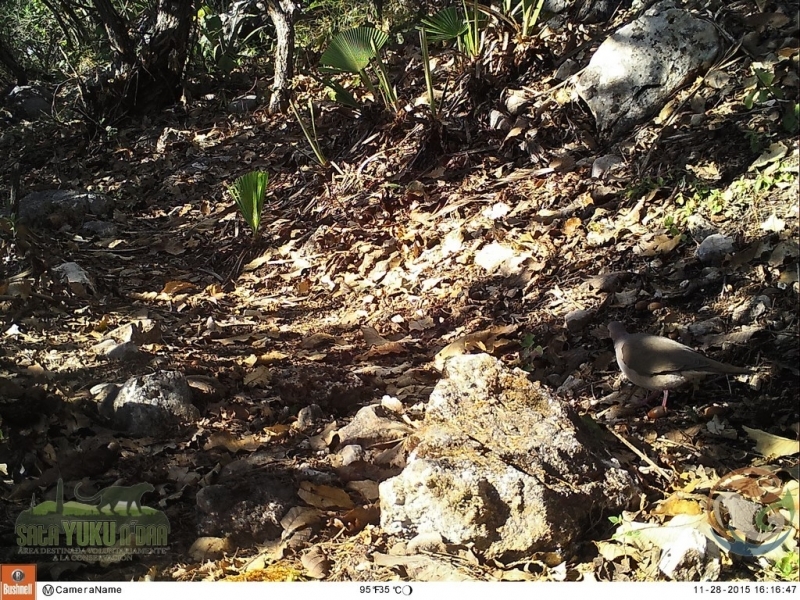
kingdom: Animalia
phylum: Chordata
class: Aves
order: Columbiformes
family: Columbidae
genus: Leptotila
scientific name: Leptotila verreauxi
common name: White-tipped dove
